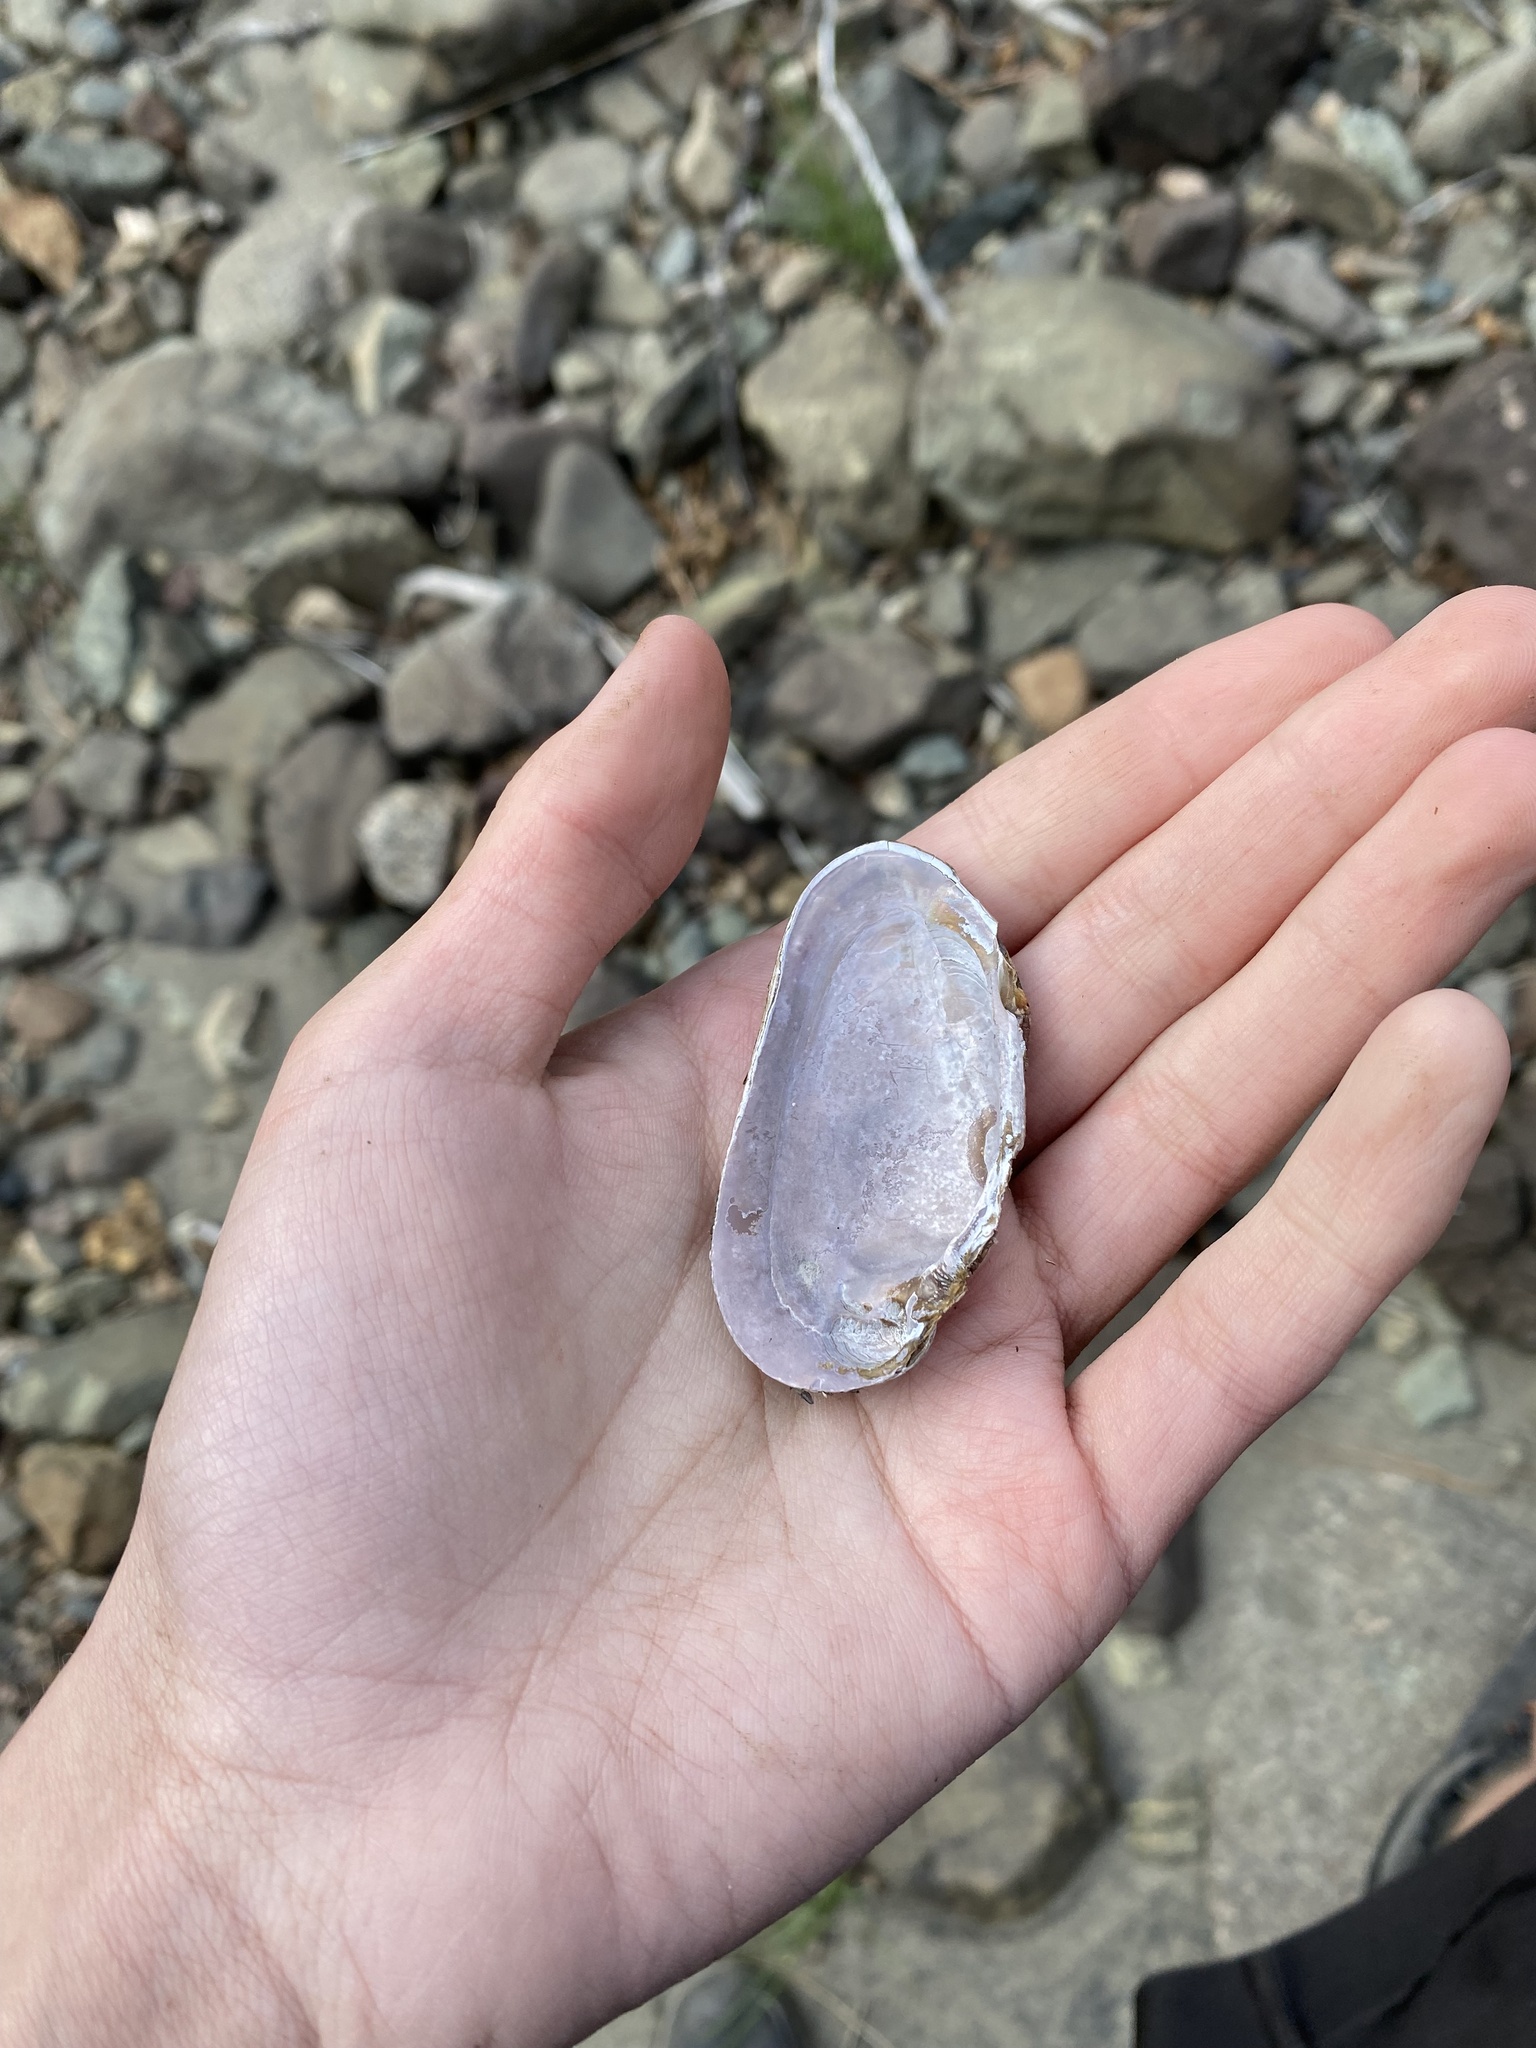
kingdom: Animalia
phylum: Mollusca
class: Bivalvia
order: Unionida
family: Margaritiferidae
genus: Margaritifera
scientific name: Margaritifera falcata
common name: Western pearlshell
